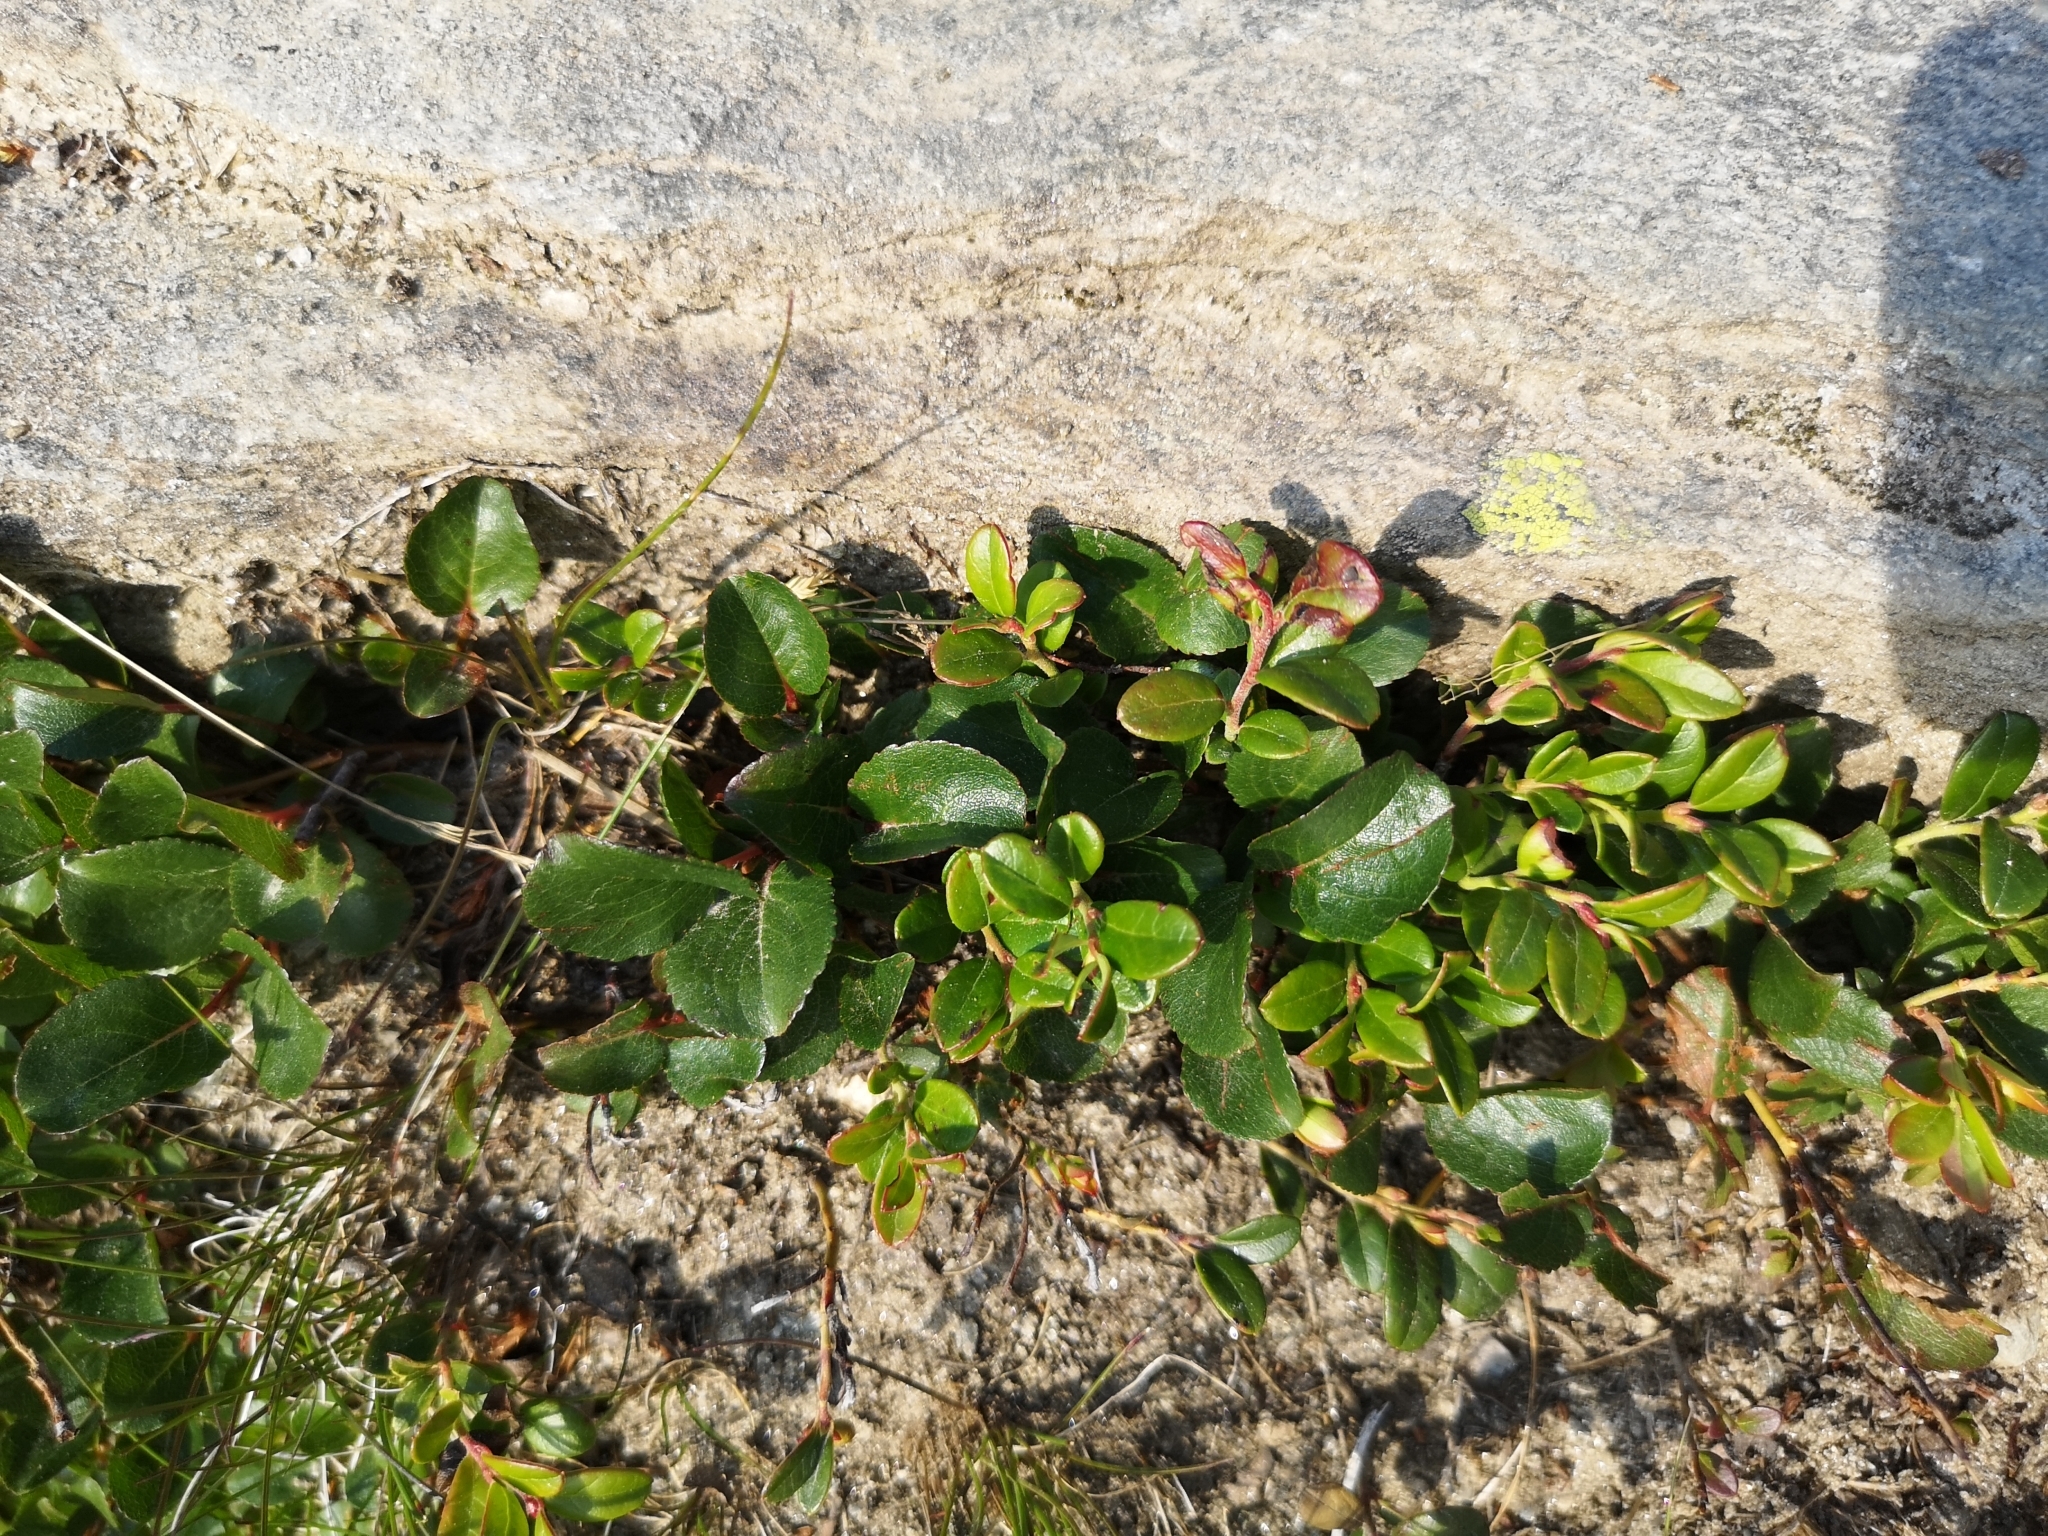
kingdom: Plantae
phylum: Tracheophyta
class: Magnoliopsida
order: Malpighiales
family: Salicaceae
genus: Salix
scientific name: Salix herbacea
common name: Dwarf willow
